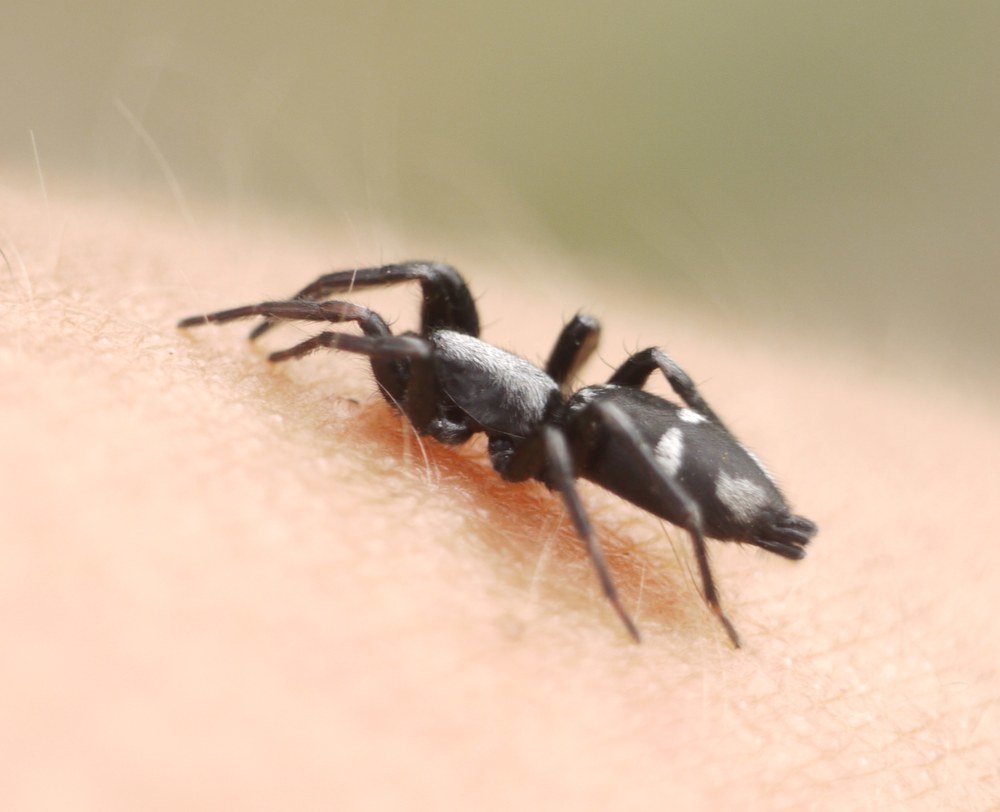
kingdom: Animalia
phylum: Arthropoda
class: Arachnida
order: Araneae
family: Gnaphosidae
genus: Aphantaulax
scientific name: Aphantaulax cincta
